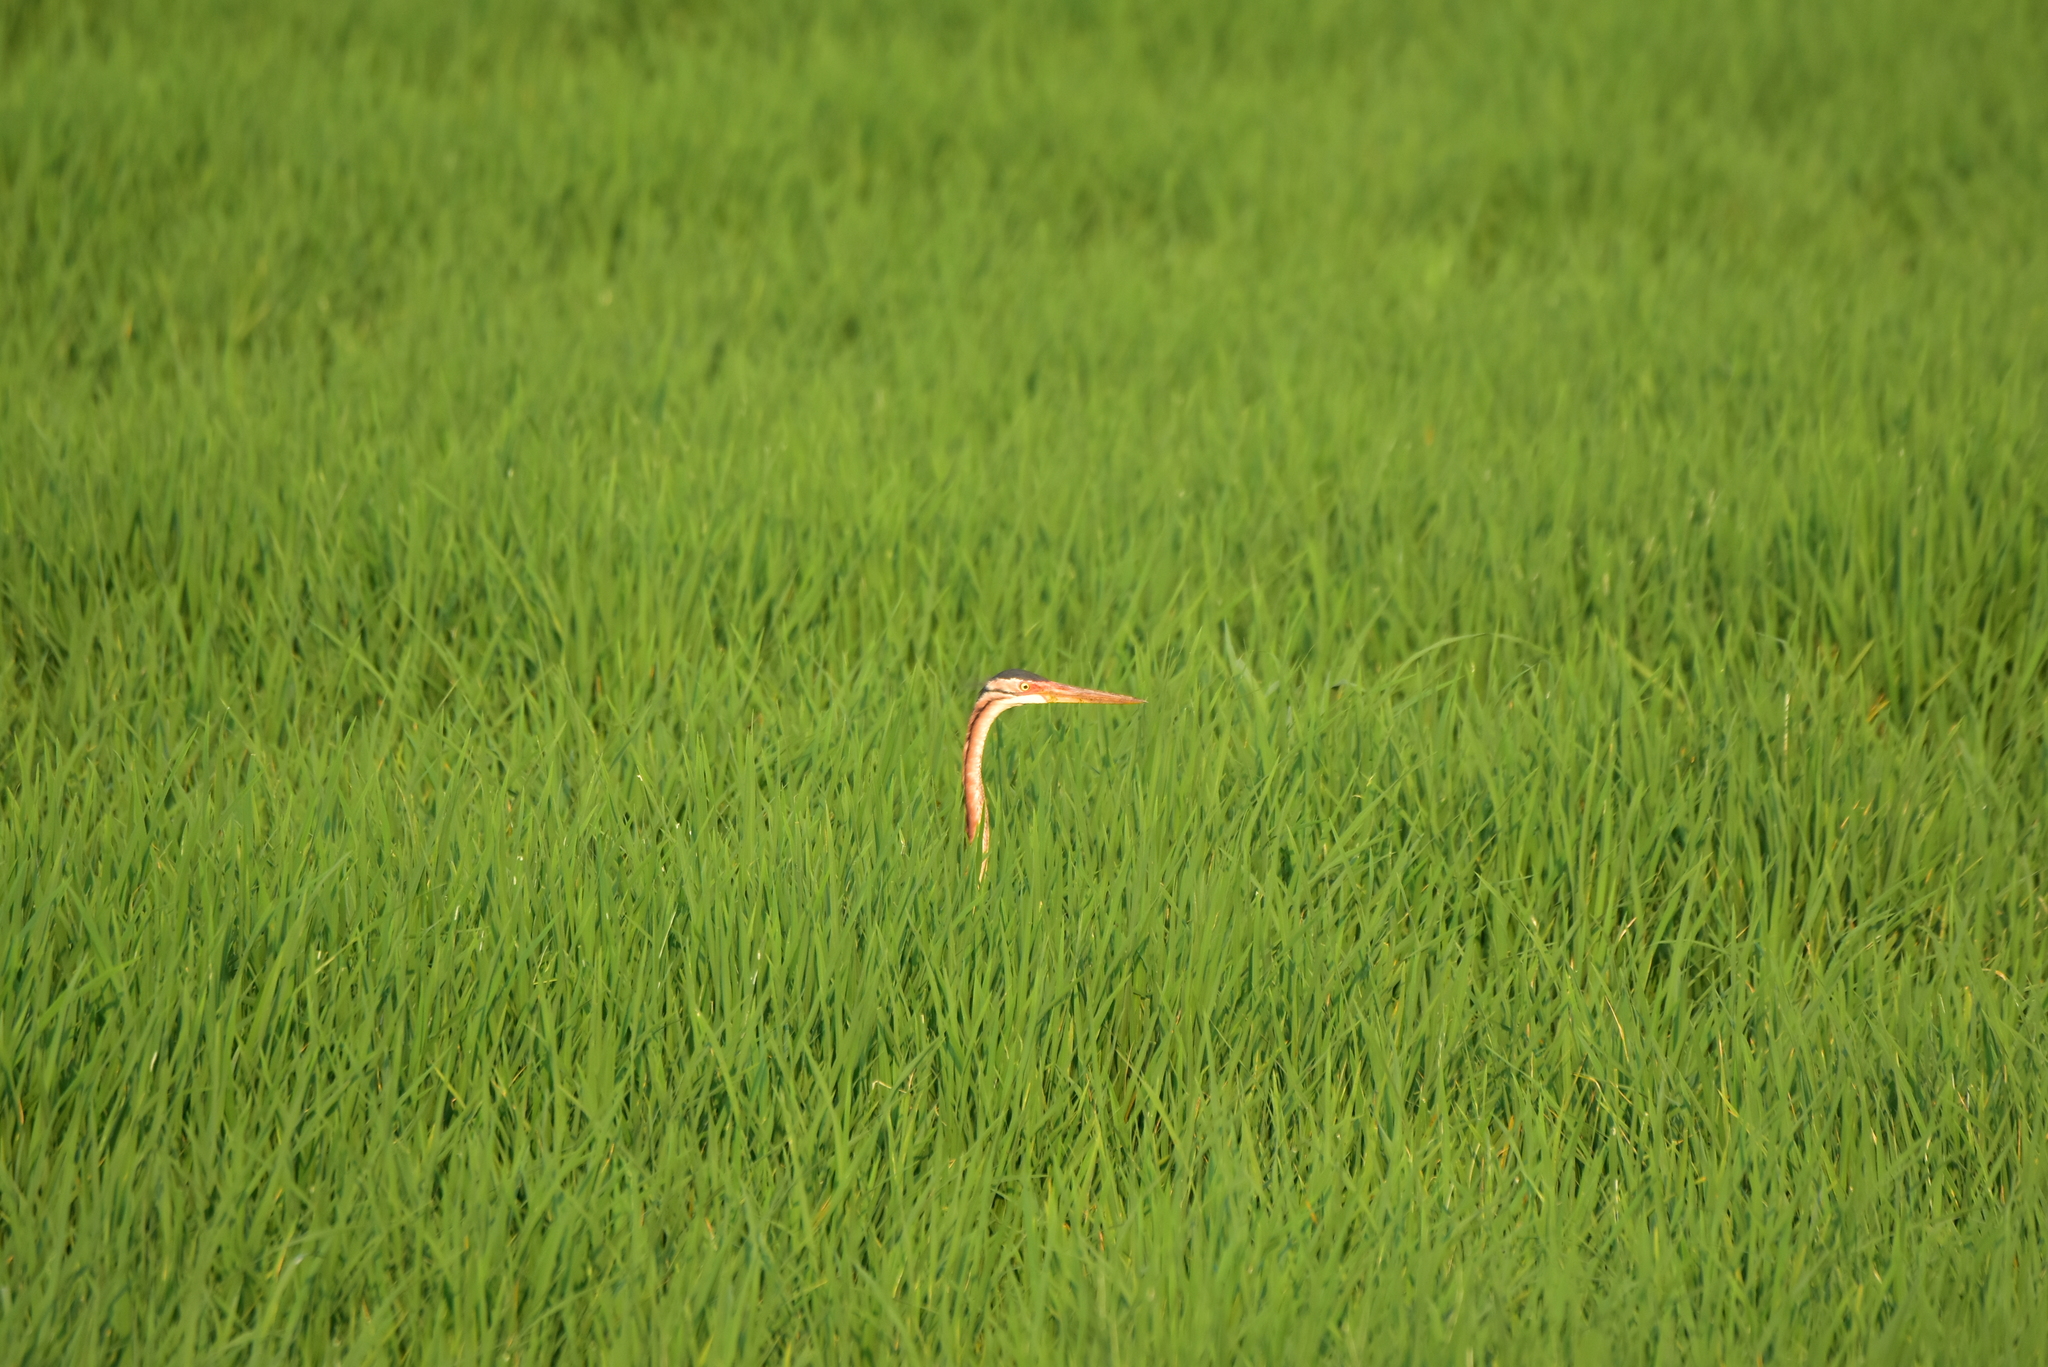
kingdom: Animalia
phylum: Chordata
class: Aves
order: Pelecaniformes
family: Ardeidae
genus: Ardea
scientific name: Ardea purpurea
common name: Purple heron
